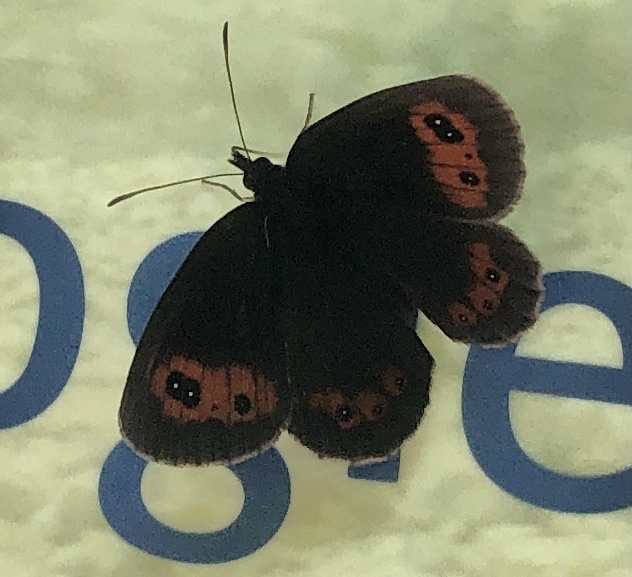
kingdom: Animalia
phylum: Arthropoda
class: Insecta
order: Lepidoptera
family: Nymphalidae
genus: Erebia
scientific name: Erebia aethiops
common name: Scotch argus
